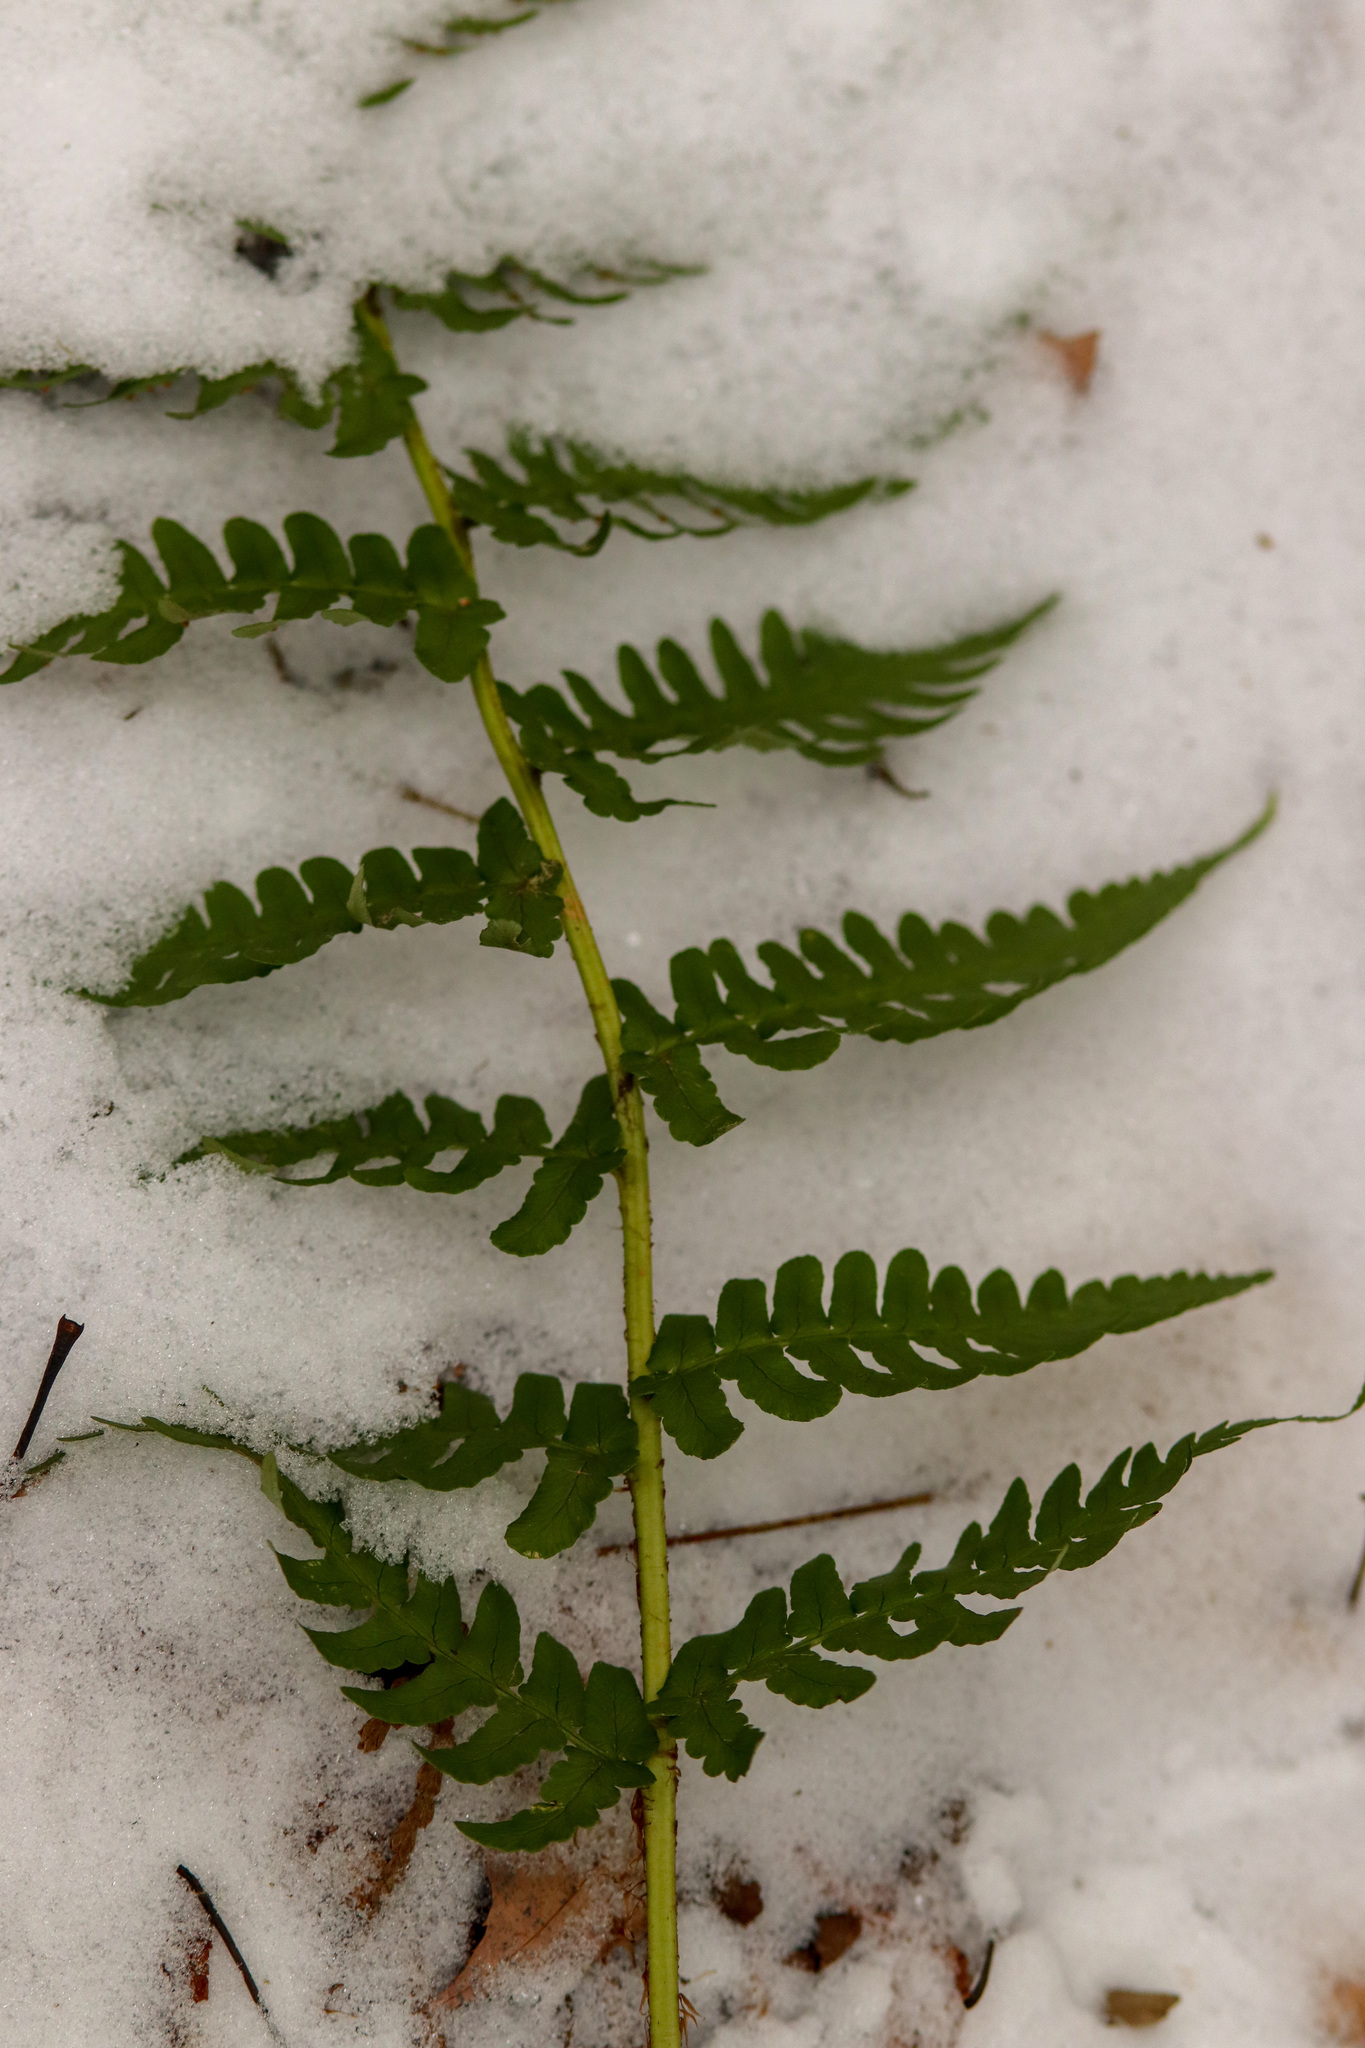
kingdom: Plantae
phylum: Tracheophyta
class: Polypodiopsida
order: Polypodiales
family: Dryopteridaceae
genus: Dryopteris
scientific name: Dryopteris marginalis
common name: Marginal wood fern
